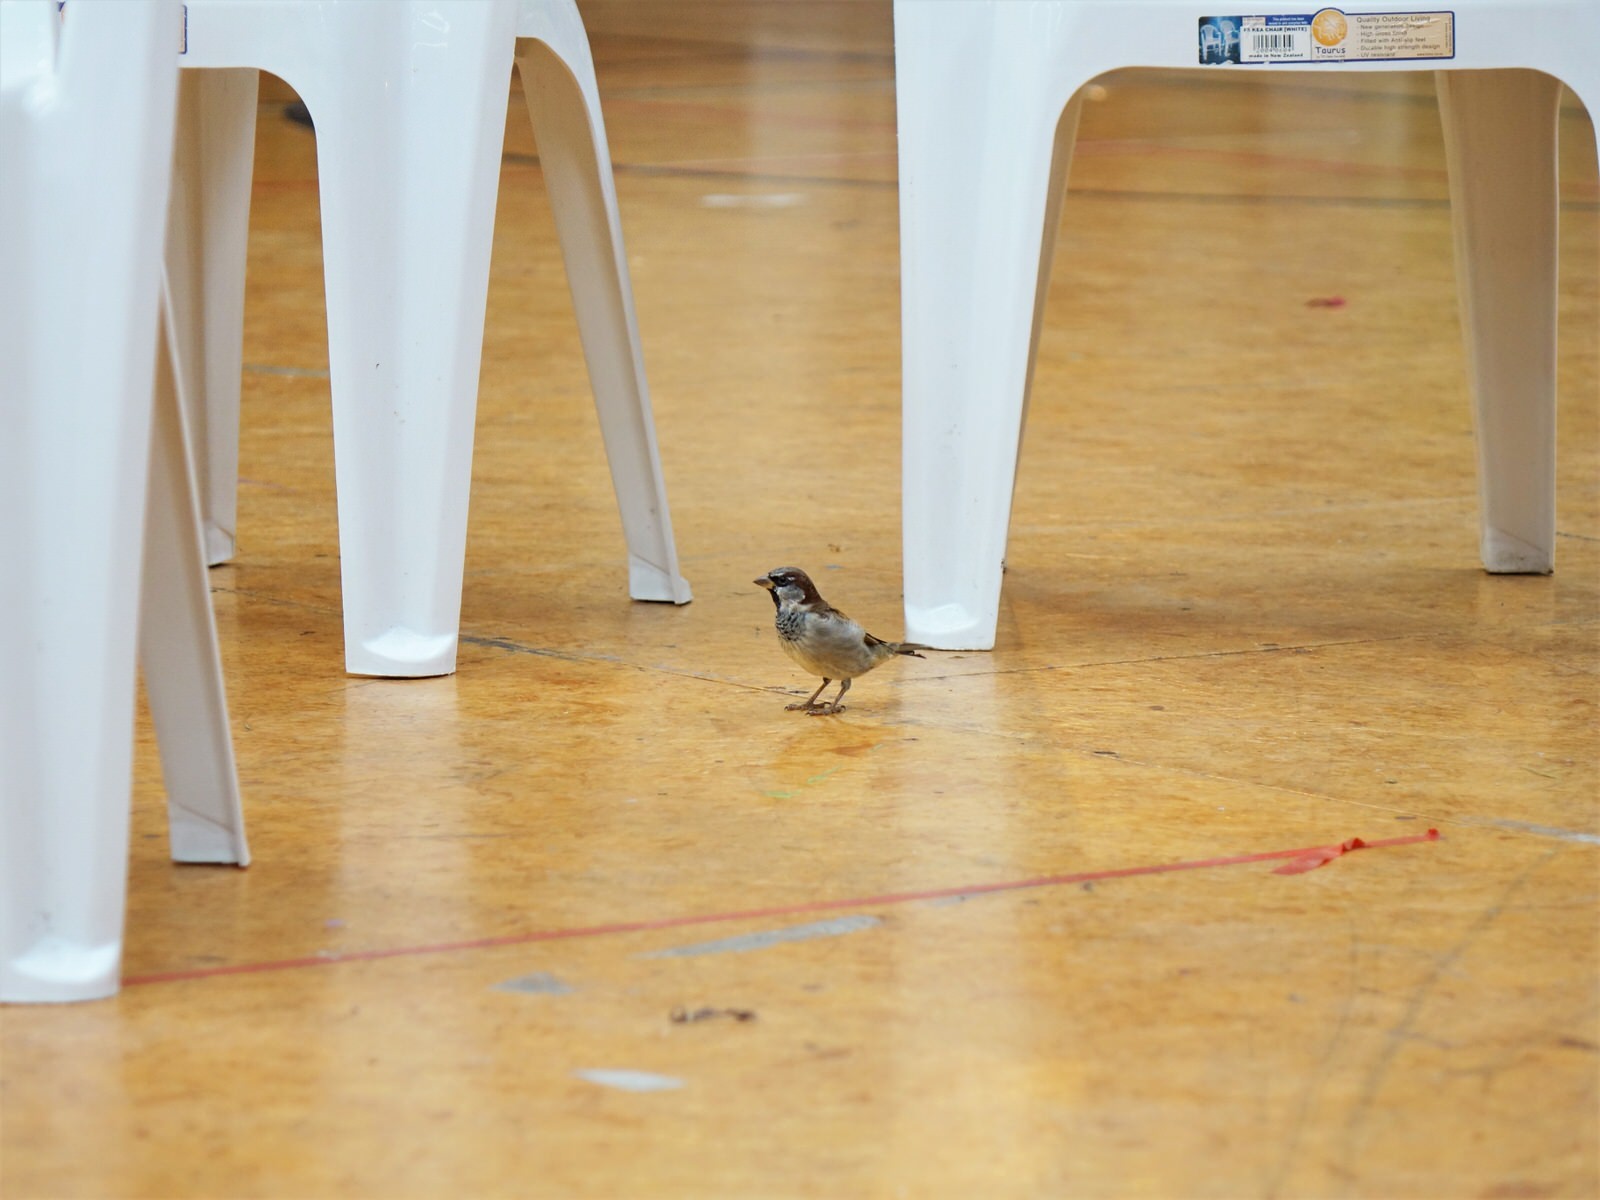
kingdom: Animalia
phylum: Chordata
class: Aves
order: Passeriformes
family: Passeridae
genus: Passer
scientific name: Passer domesticus
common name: House sparrow
